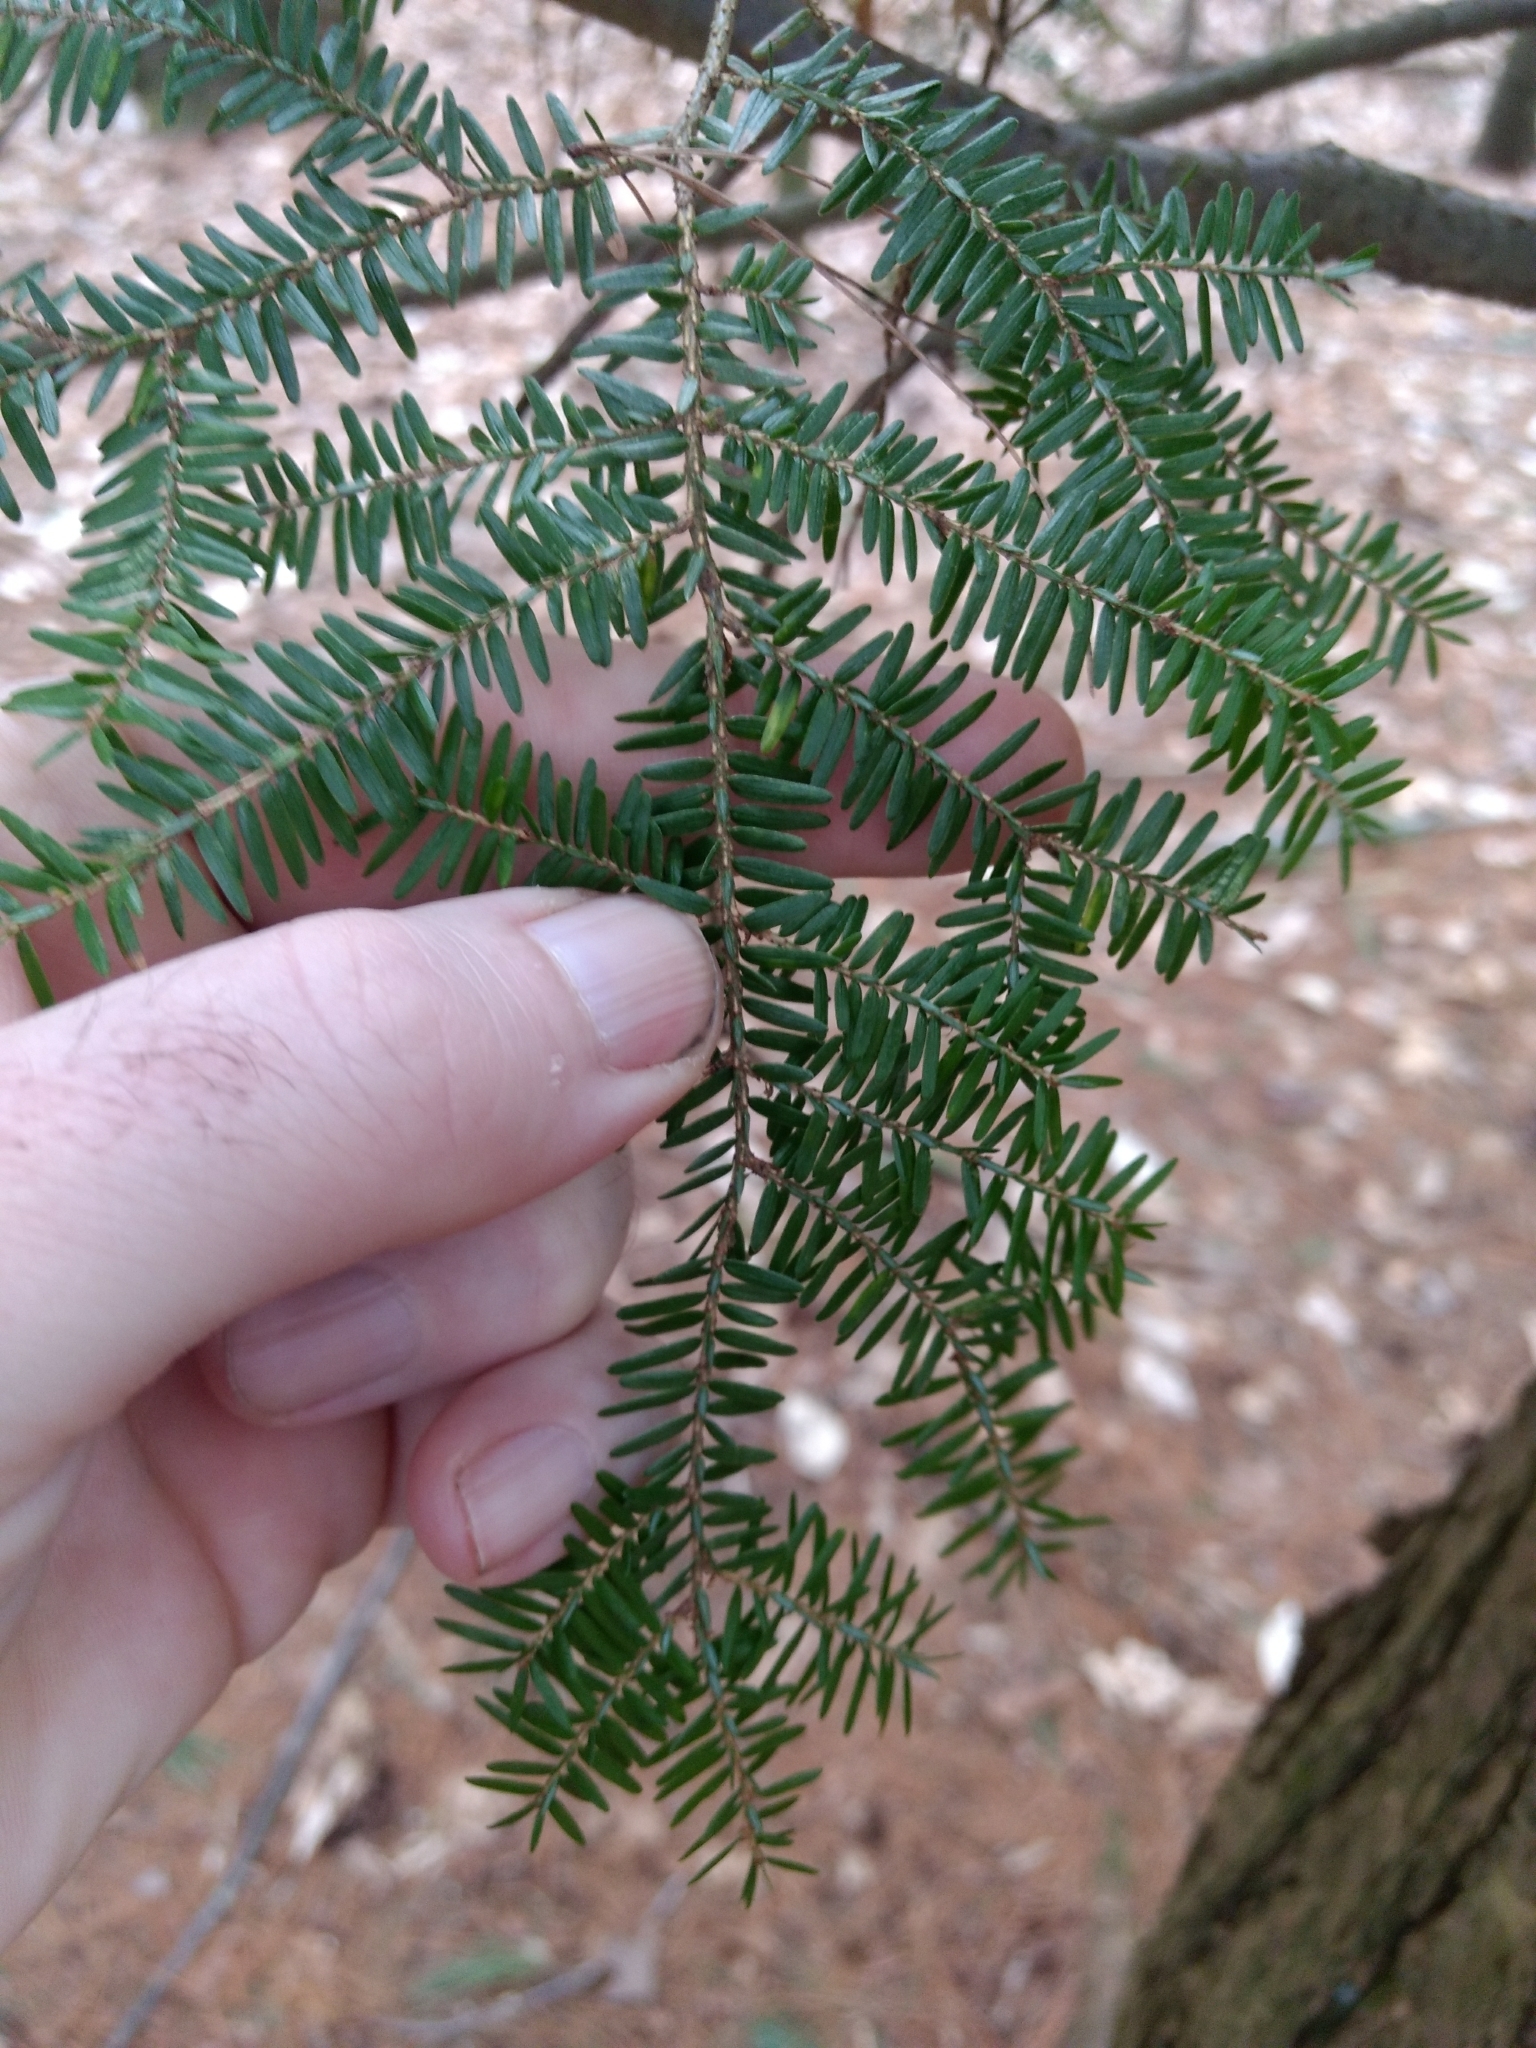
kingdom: Plantae
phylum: Tracheophyta
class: Pinopsida
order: Pinales
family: Pinaceae
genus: Tsuga
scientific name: Tsuga canadensis
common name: Eastern hemlock
